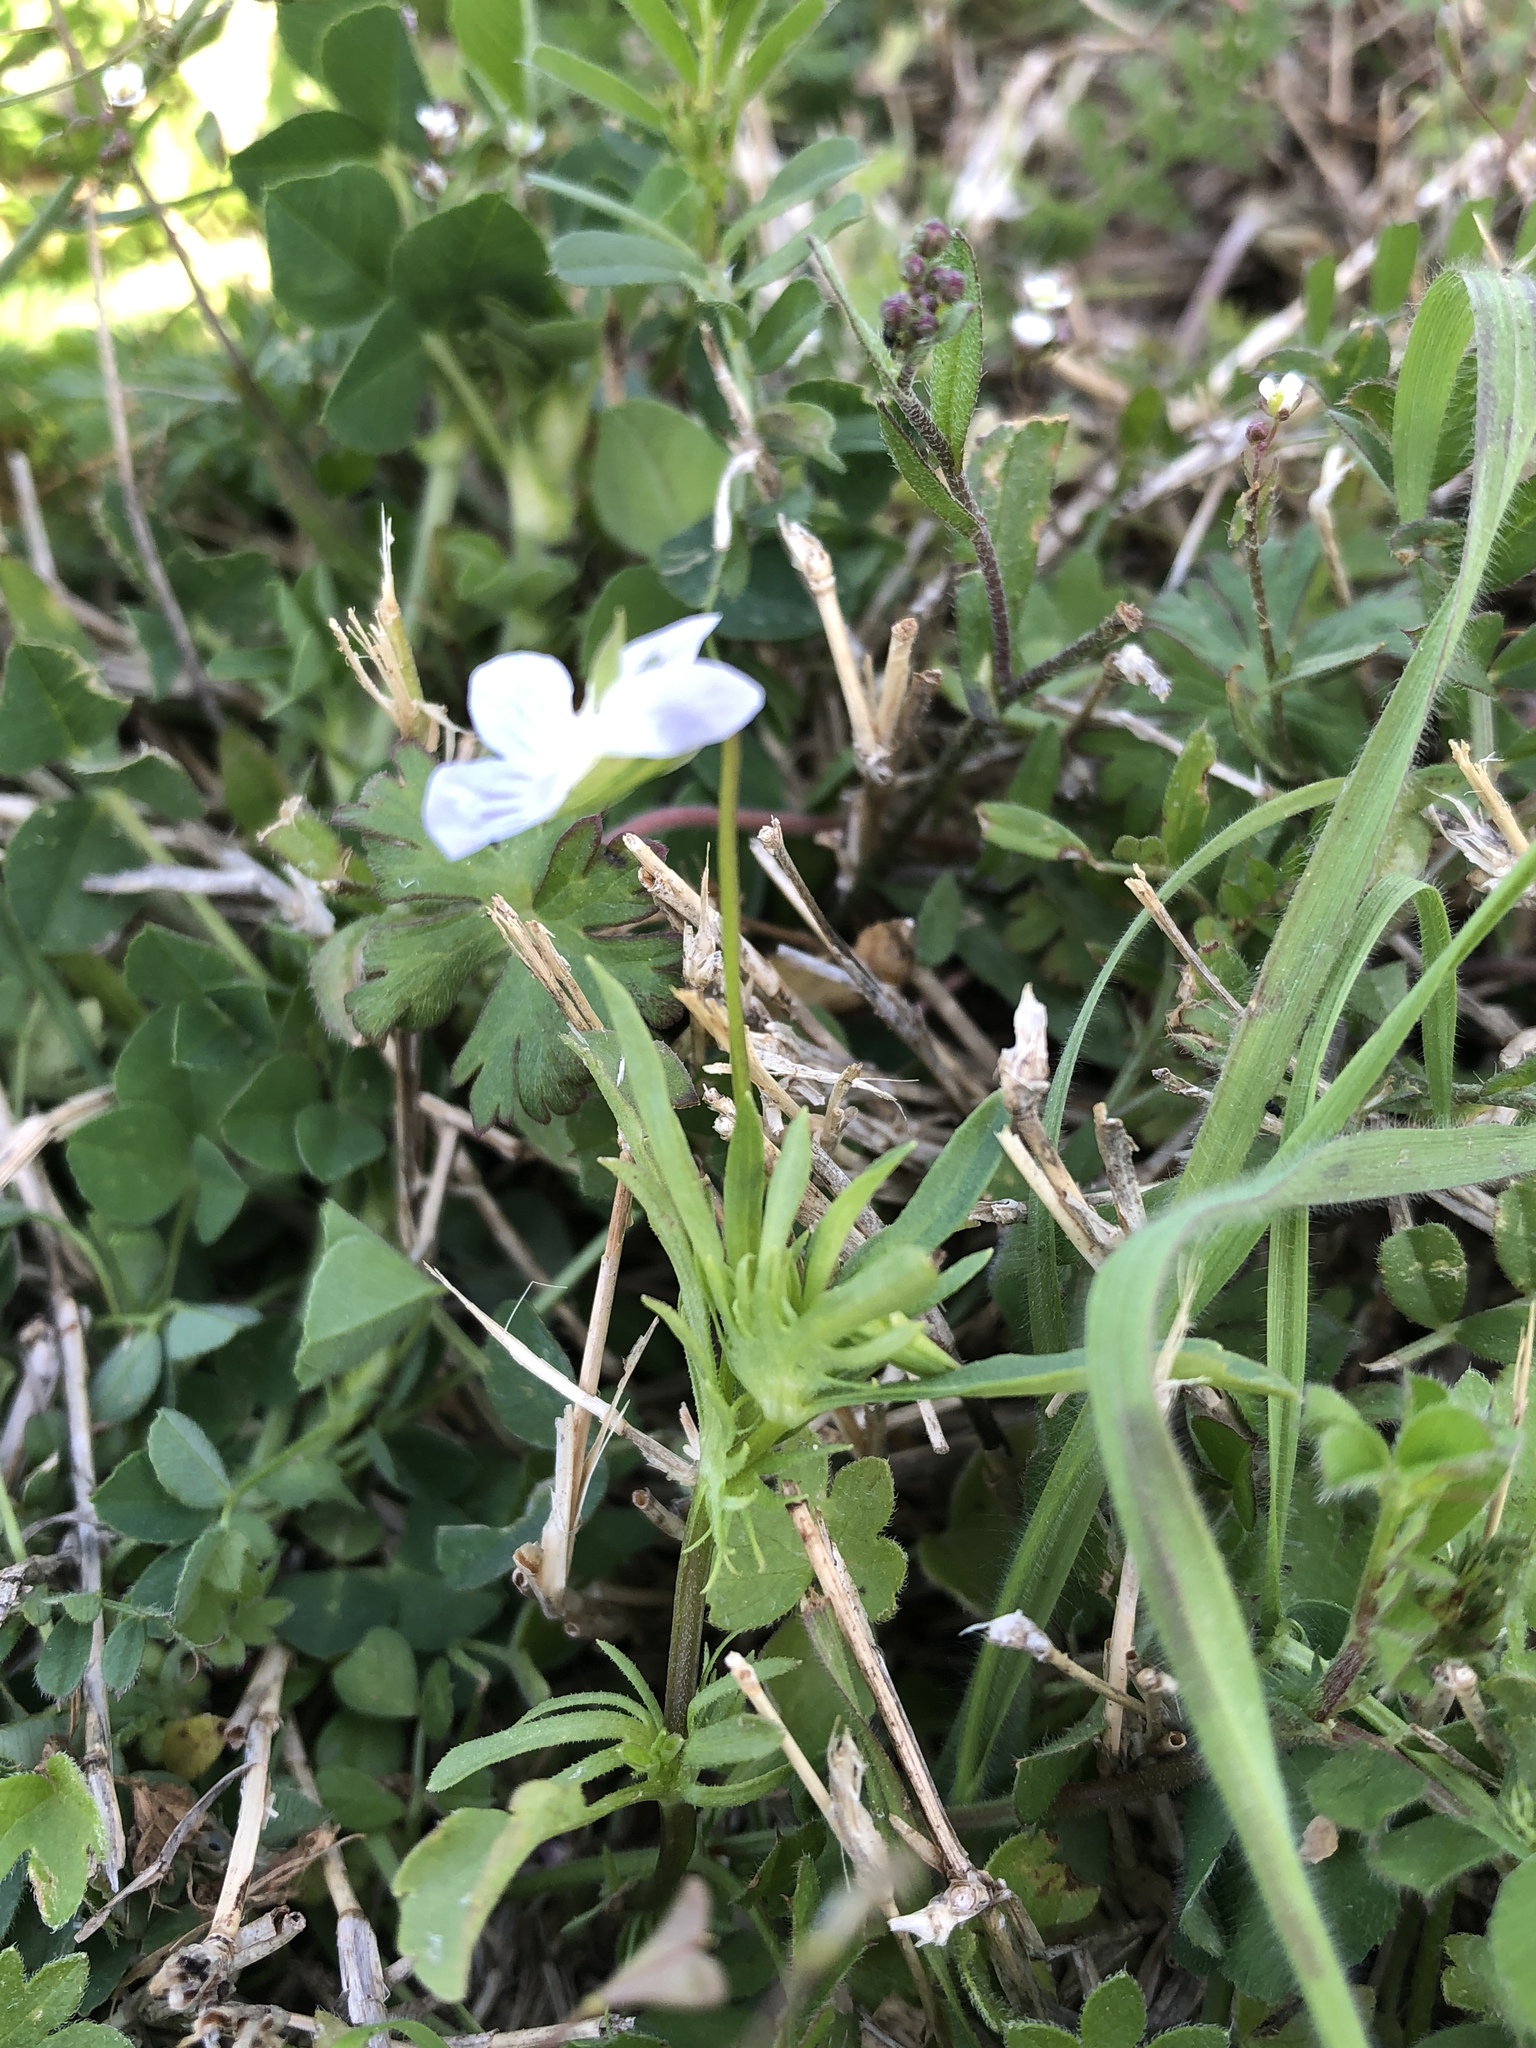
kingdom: Plantae
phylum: Tracheophyta
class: Magnoliopsida
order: Malpighiales
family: Violaceae
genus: Viola
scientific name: Viola rafinesquei
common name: American field pansy
